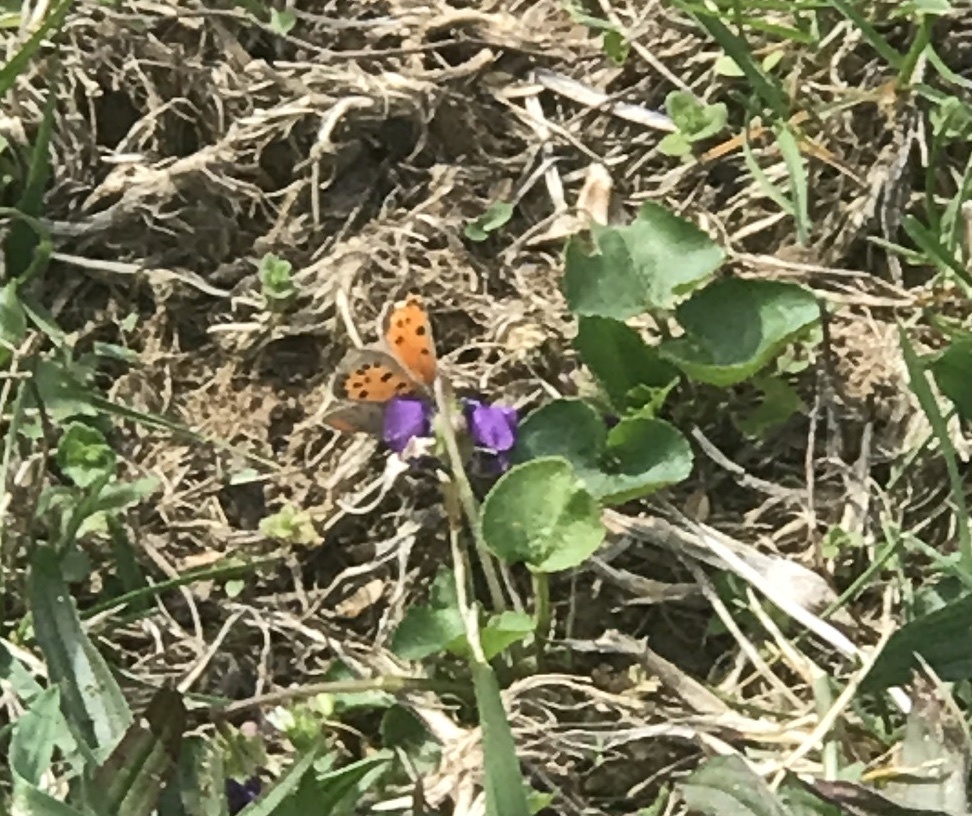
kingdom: Animalia
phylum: Arthropoda
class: Insecta
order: Lepidoptera
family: Lycaenidae
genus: Lycaena
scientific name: Lycaena hypophlaeas
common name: American copper
